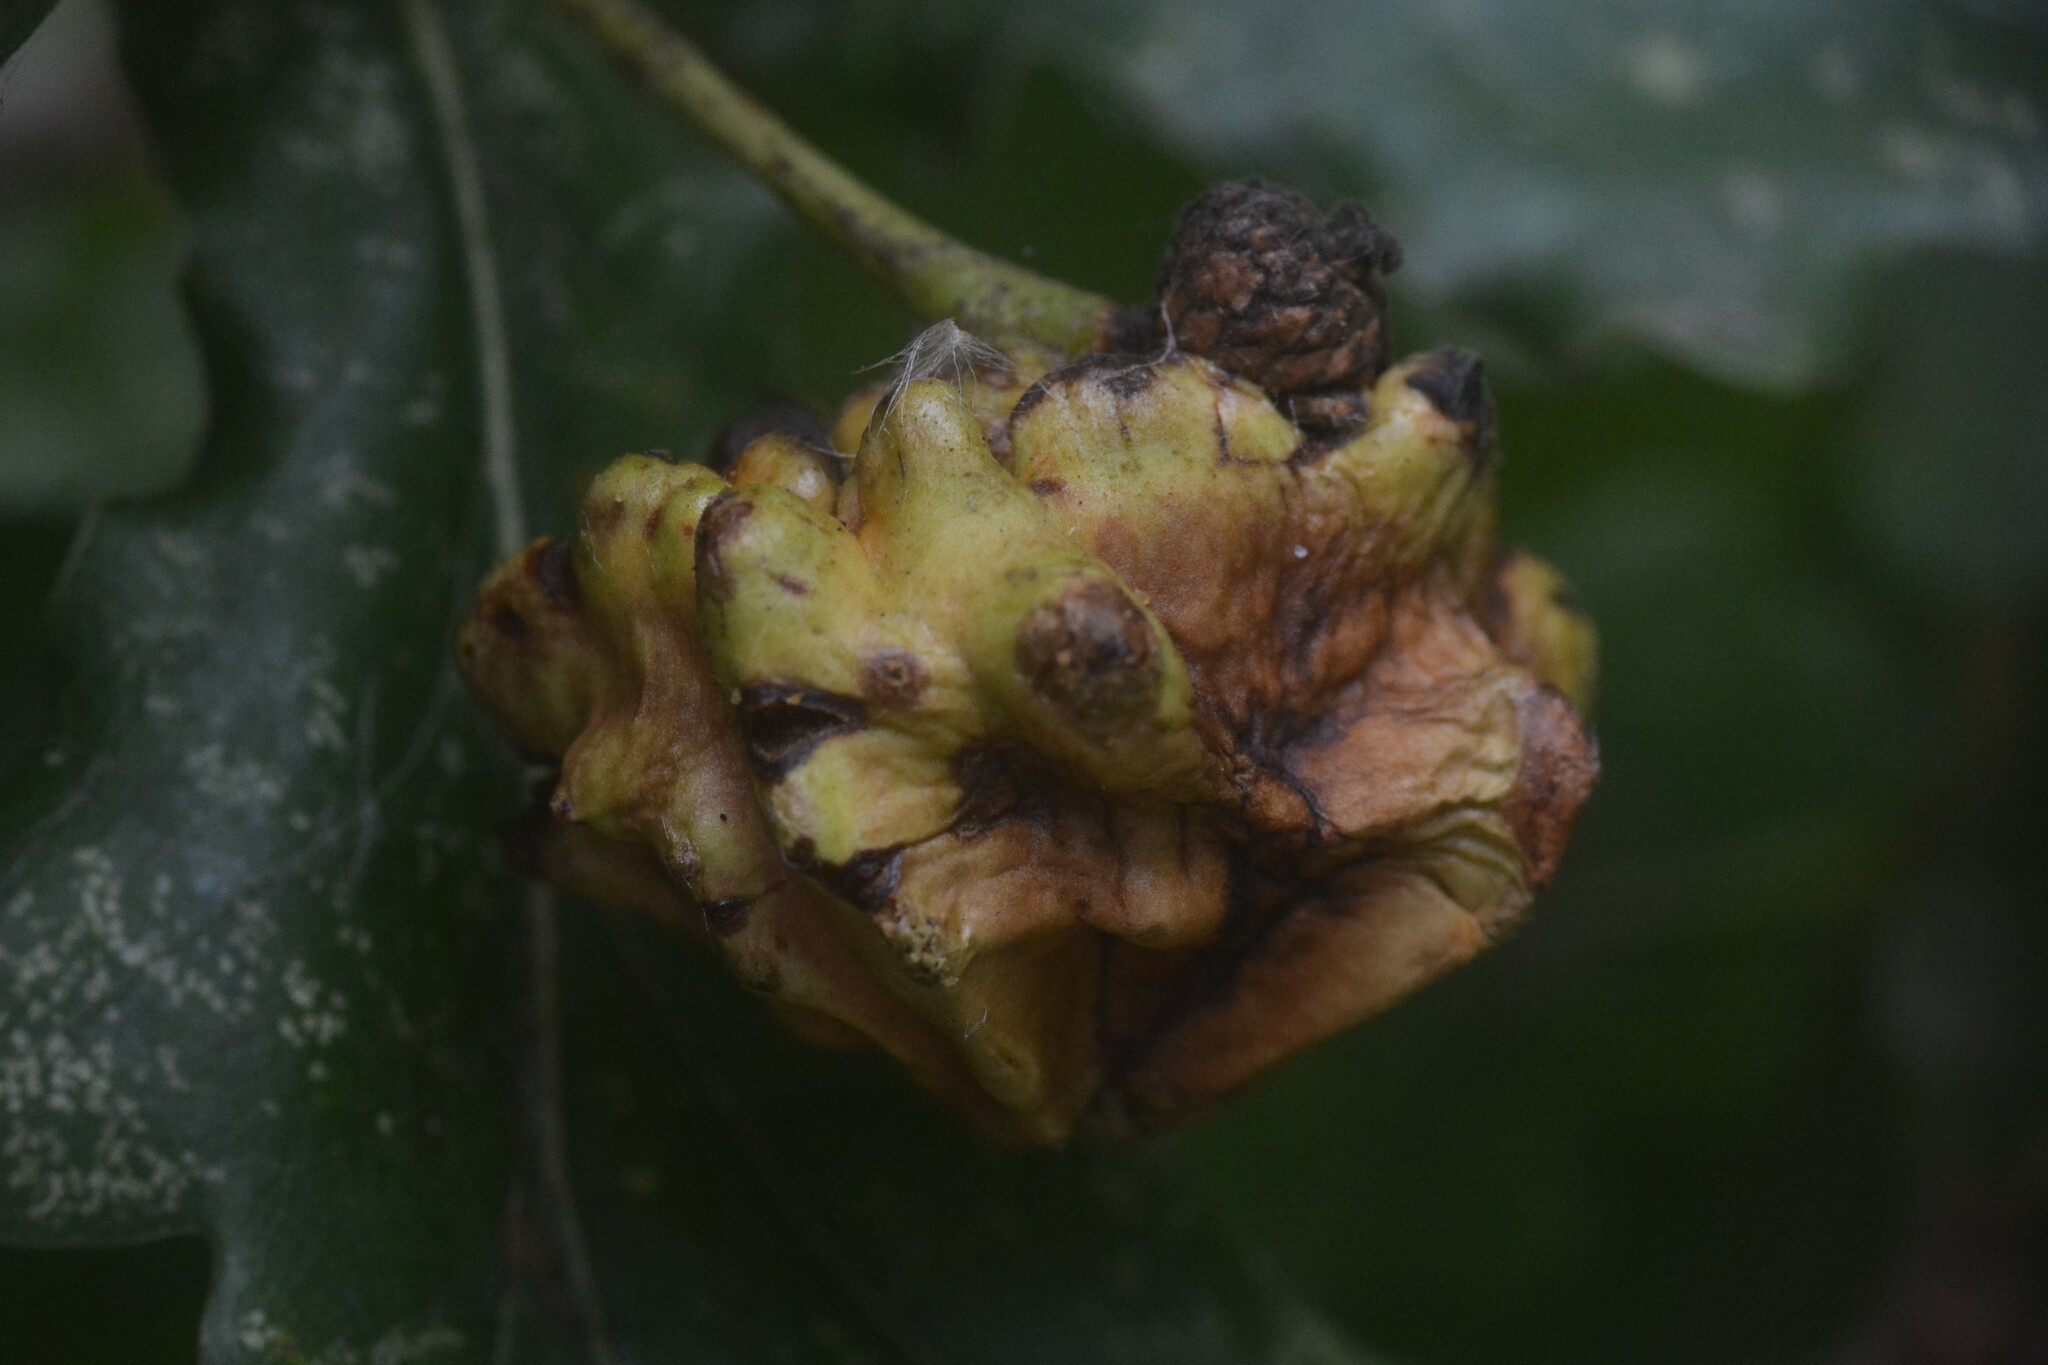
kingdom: Animalia
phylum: Arthropoda
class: Insecta
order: Hymenoptera
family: Cynipidae
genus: Andricus
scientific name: Andricus quercuscalicis
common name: Knopper gall
